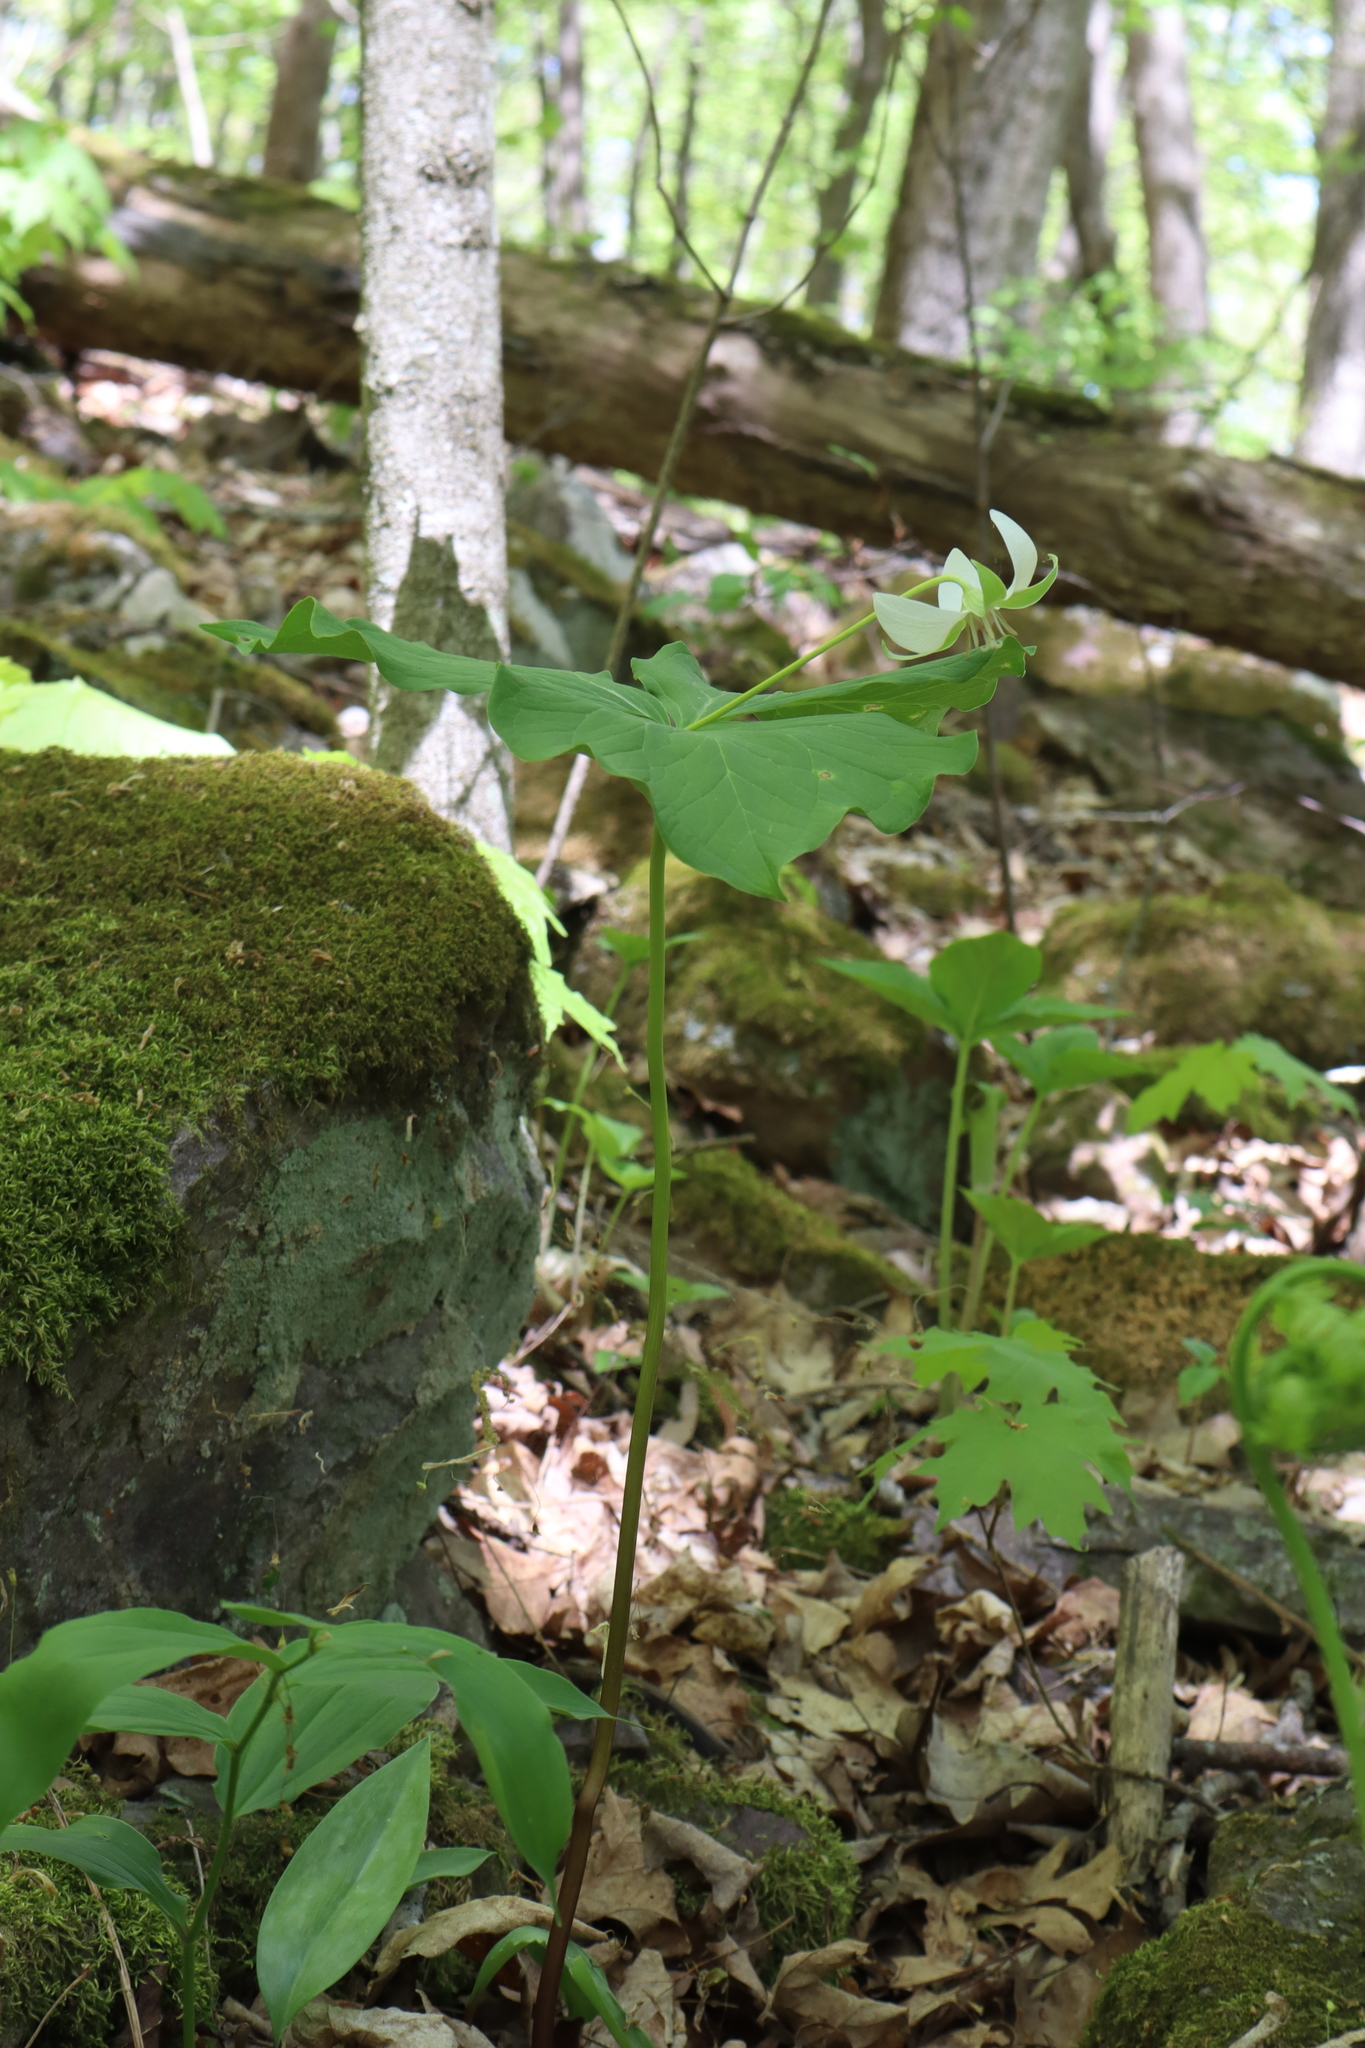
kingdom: Plantae
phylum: Tracheophyta
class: Liliopsida
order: Liliales
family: Melanthiaceae
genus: Trillium
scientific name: Trillium flexipes
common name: Drooping trillium
